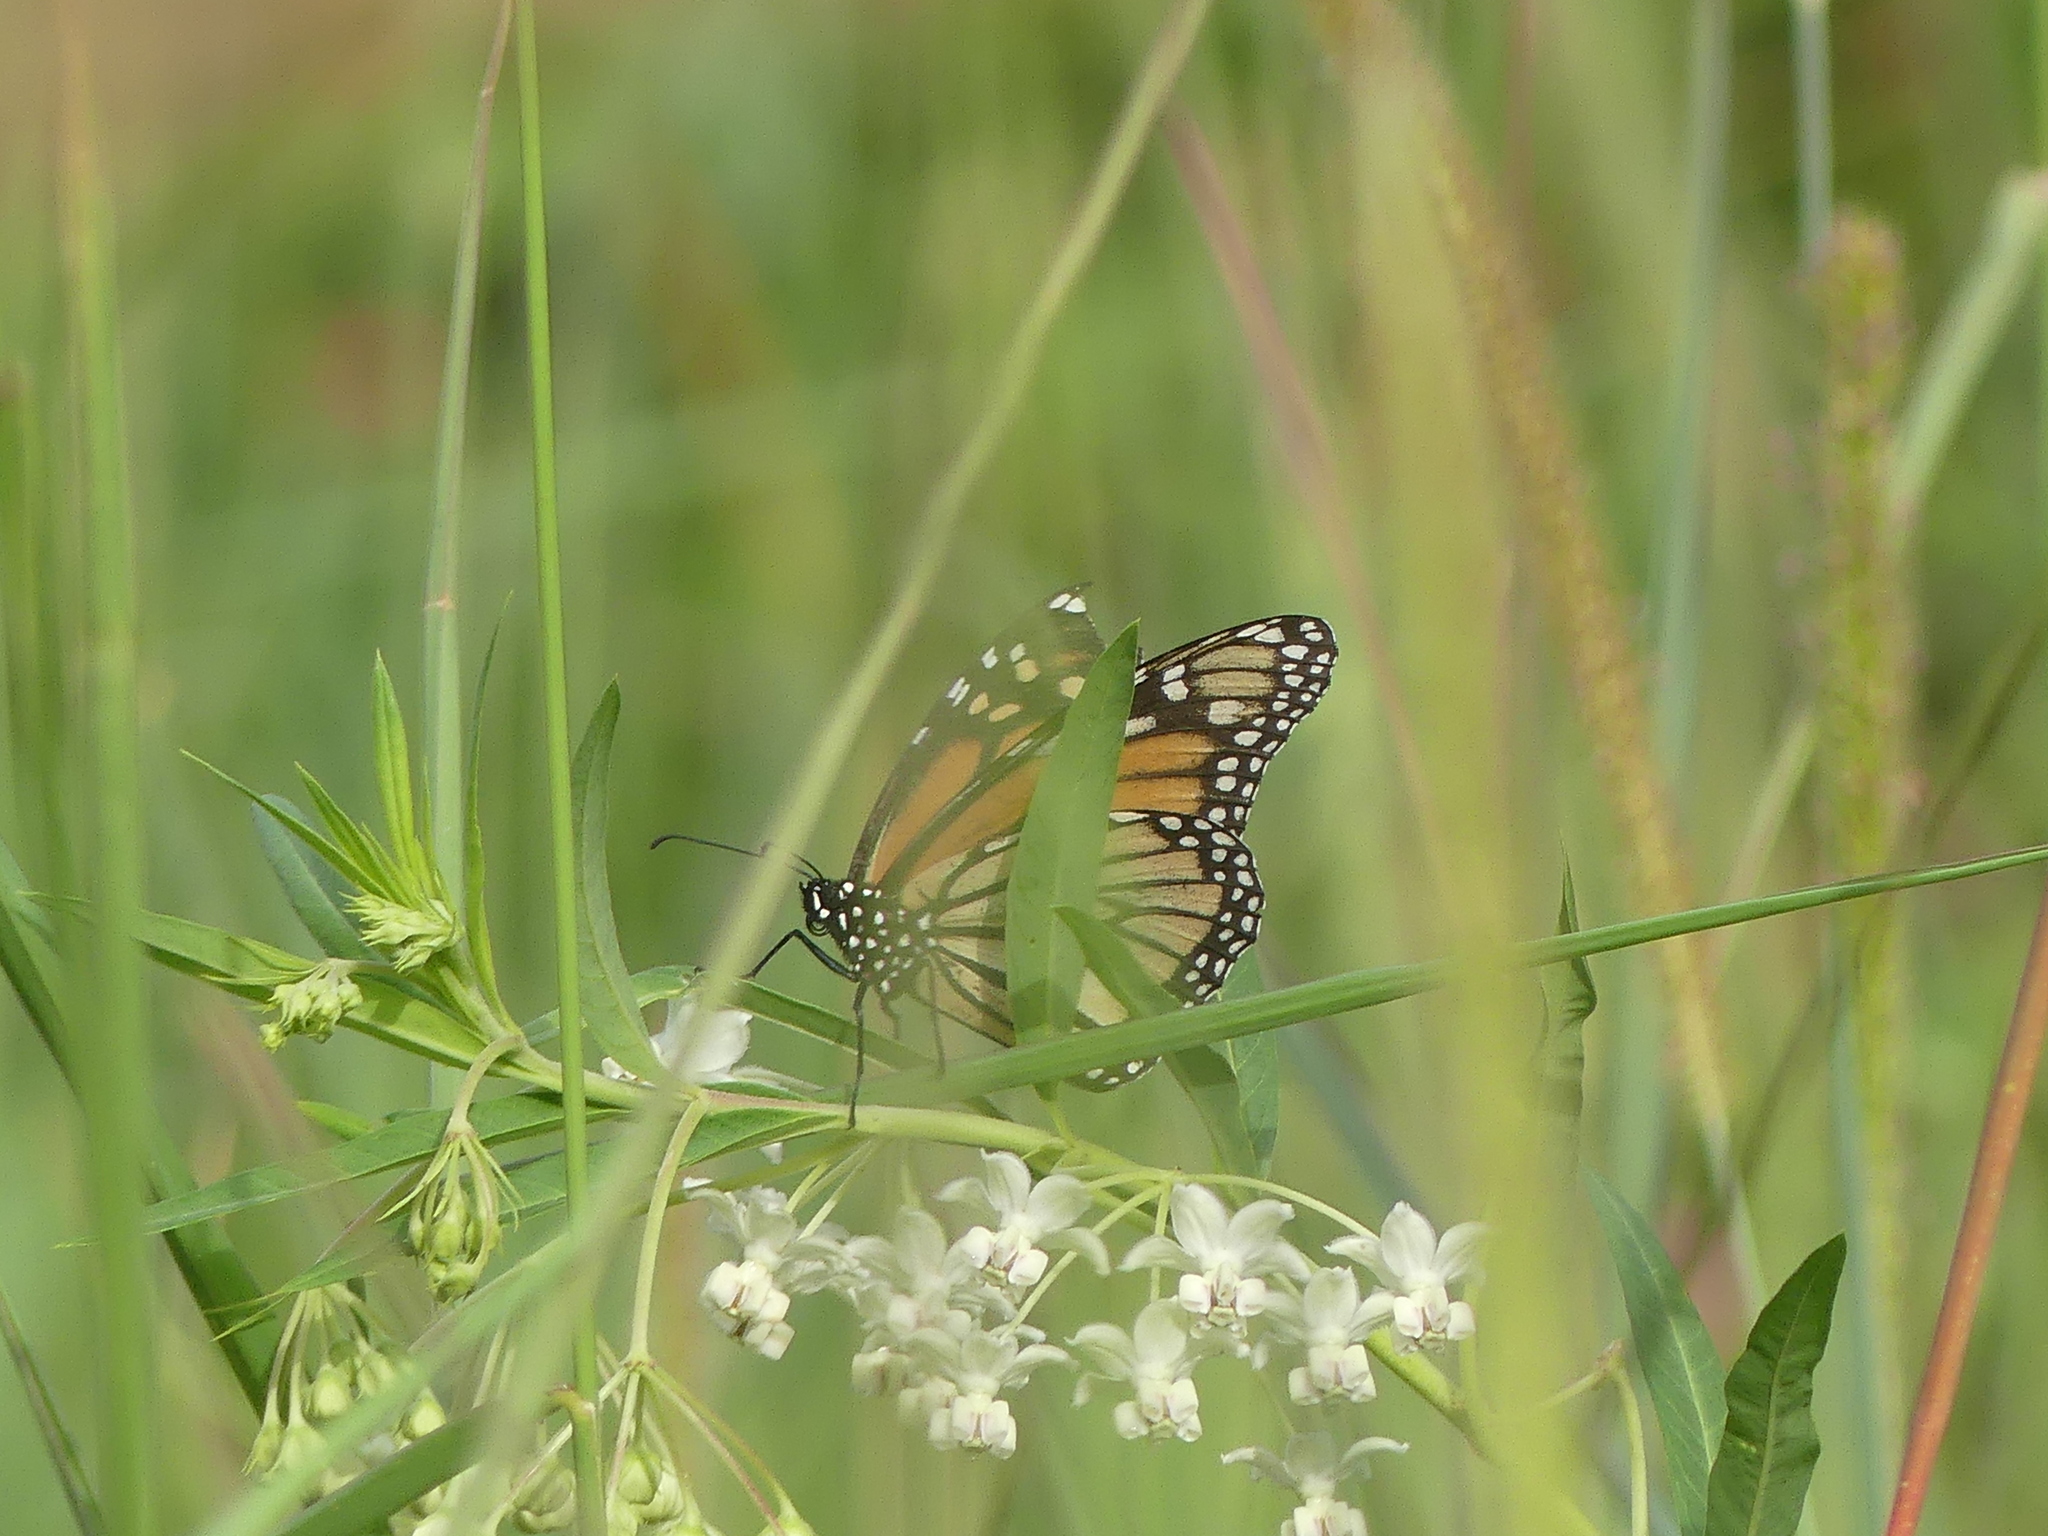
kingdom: Animalia
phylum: Arthropoda
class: Insecta
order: Lepidoptera
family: Nymphalidae
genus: Danaus
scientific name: Danaus plexippus
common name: Monarch
